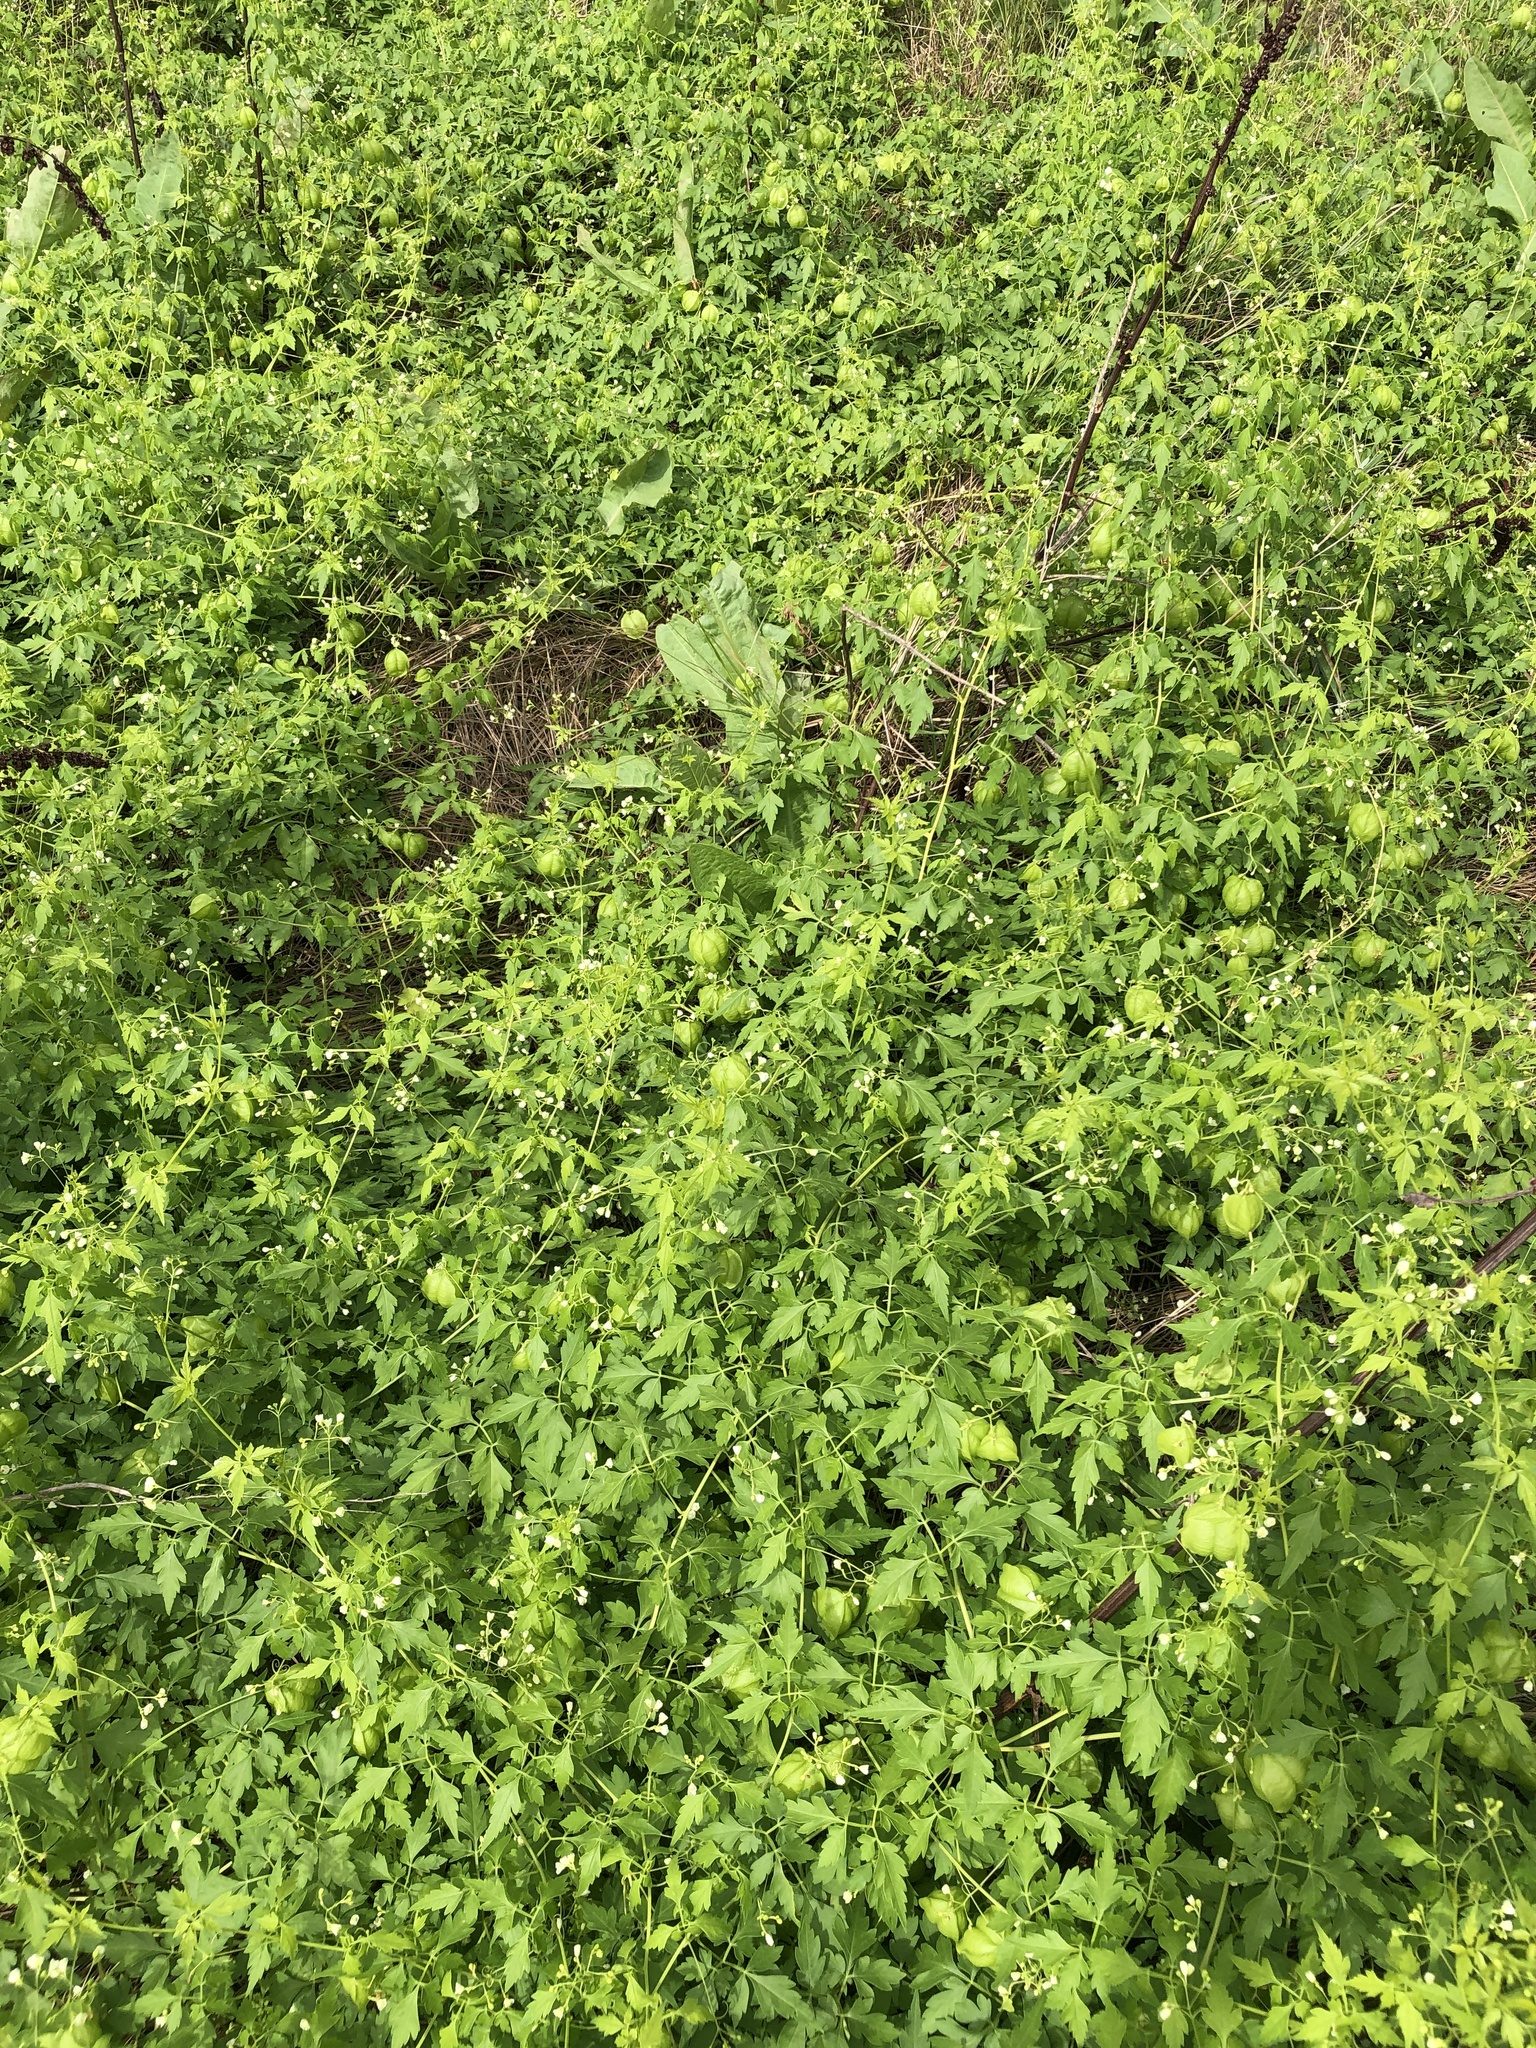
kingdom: Plantae
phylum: Tracheophyta
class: Magnoliopsida
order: Sapindales
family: Sapindaceae
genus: Cardiospermum
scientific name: Cardiospermum halicacabum
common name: Balloon vine
